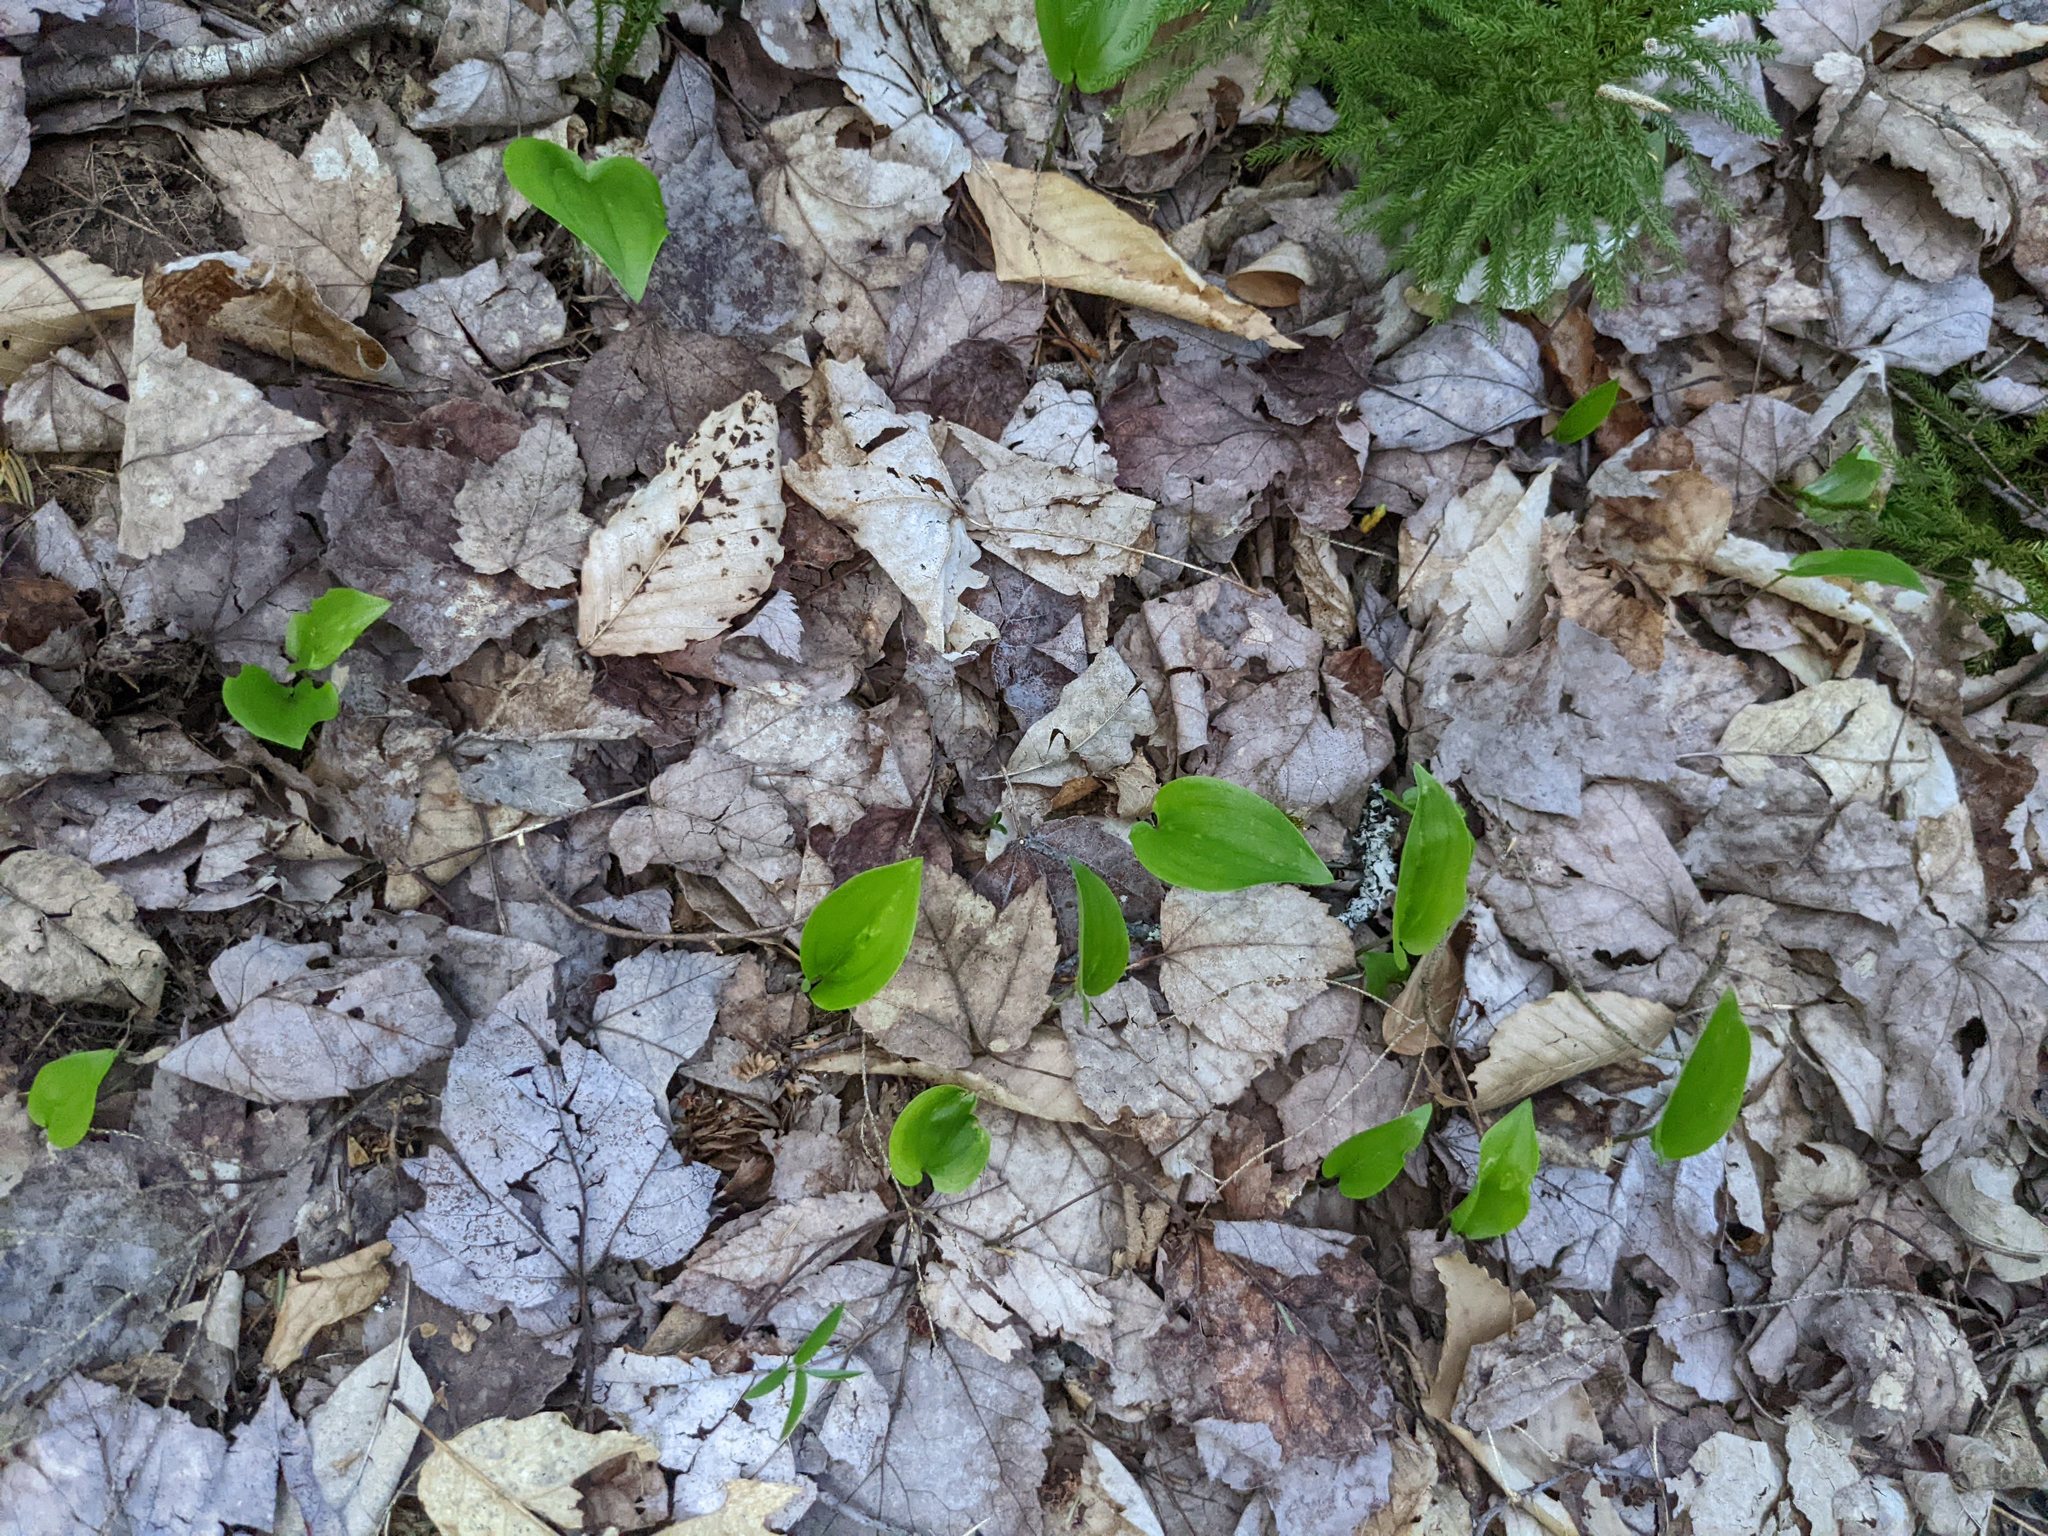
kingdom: Plantae
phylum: Tracheophyta
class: Liliopsida
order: Asparagales
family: Asparagaceae
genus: Maianthemum
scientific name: Maianthemum canadense
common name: False lily-of-the-valley
